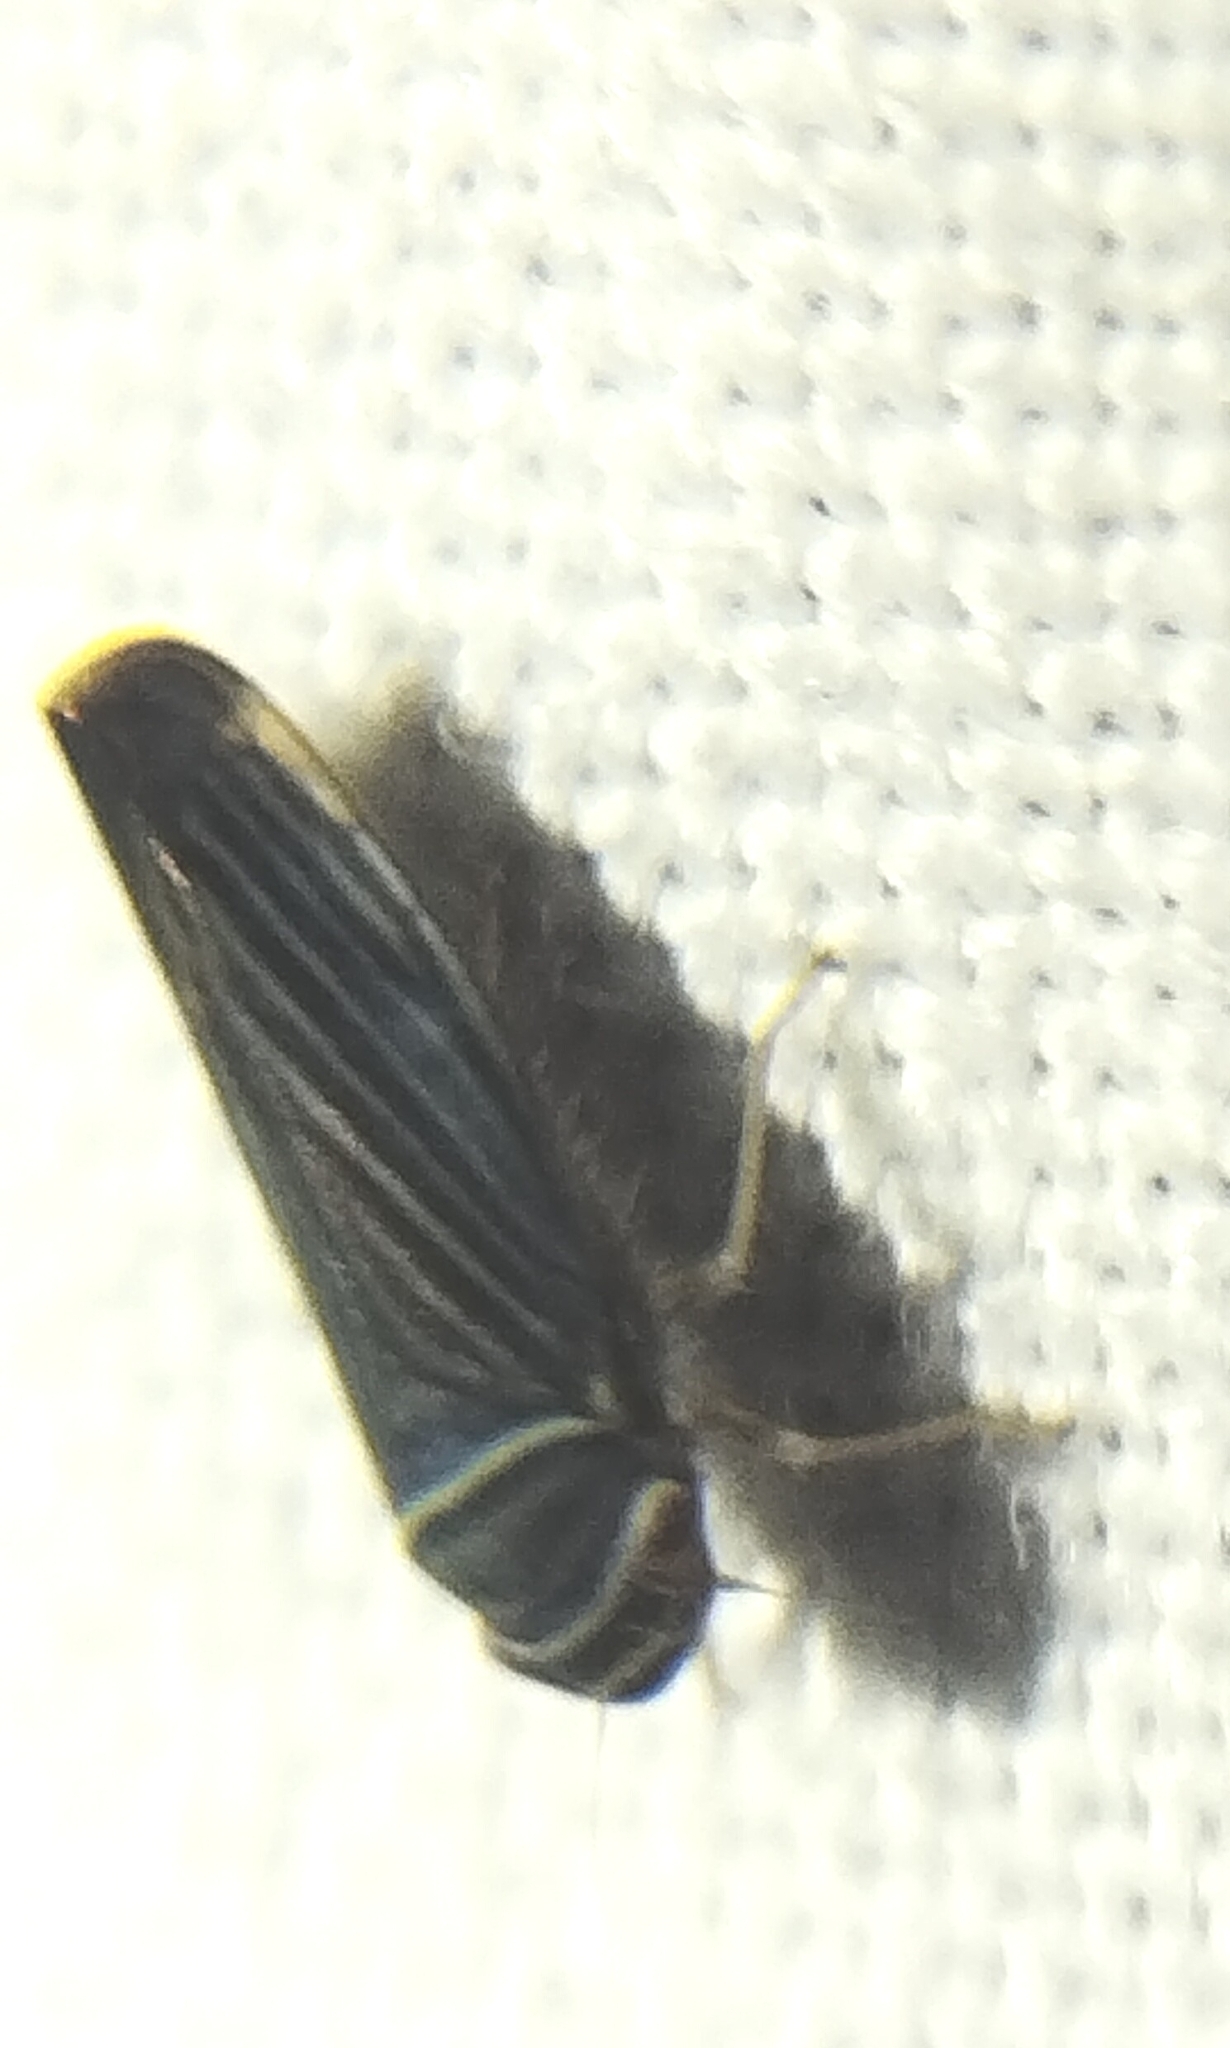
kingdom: Animalia
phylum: Arthropoda
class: Insecta
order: Hemiptera
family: Cicadellidae
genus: Tylozygus
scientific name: Tylozygus bifidus
